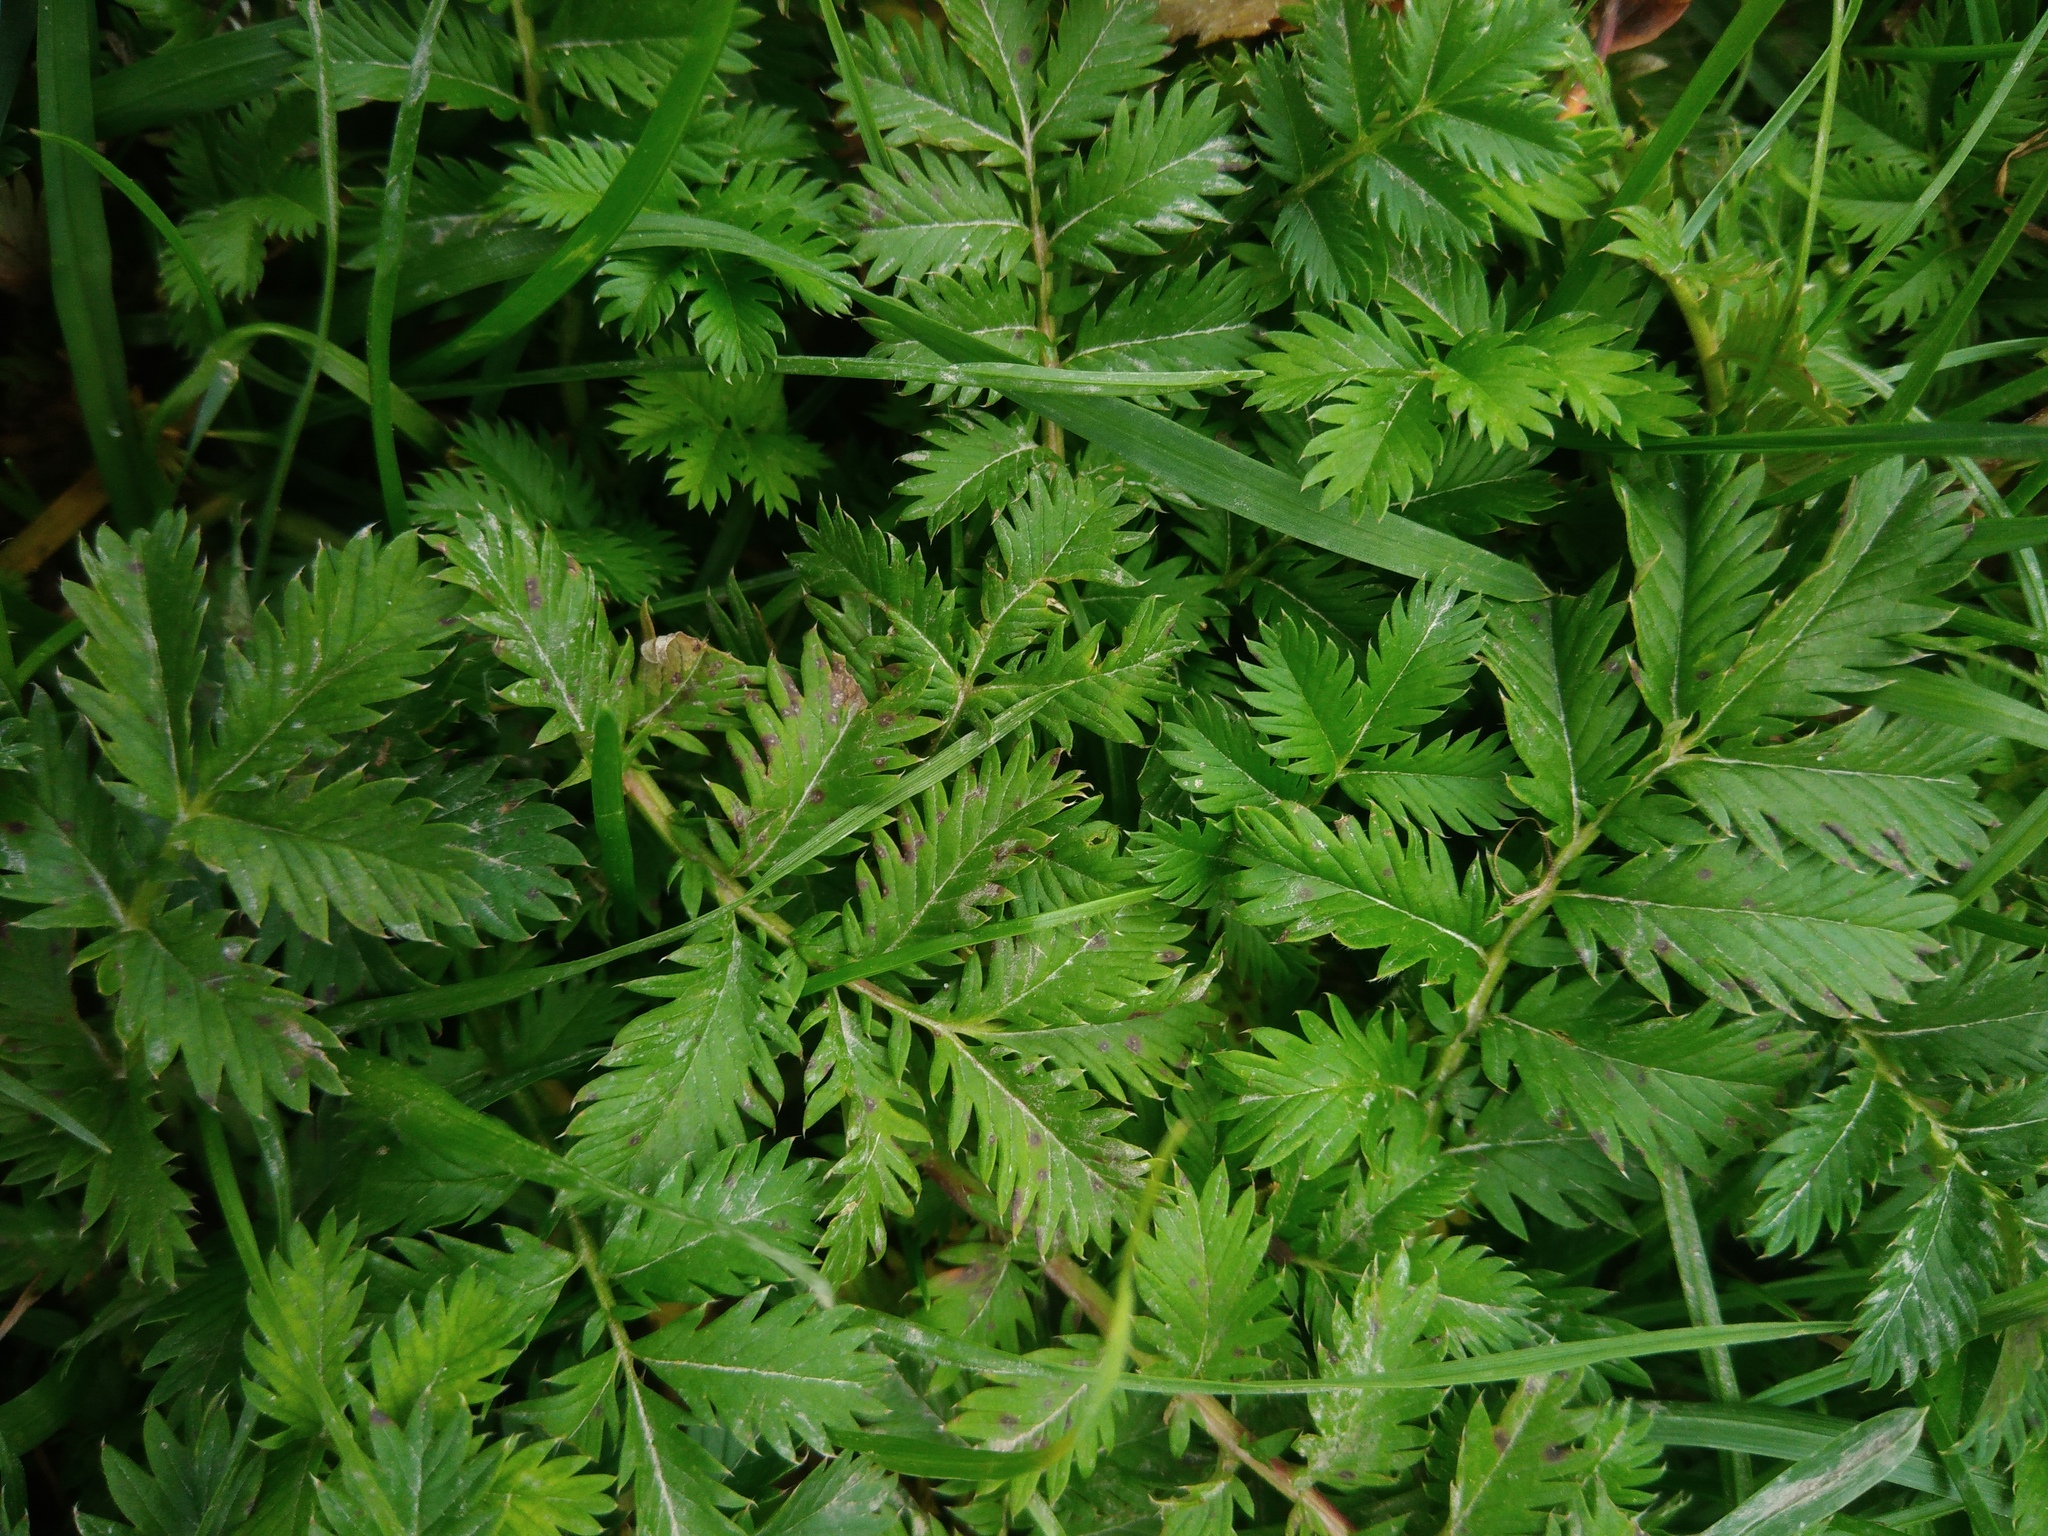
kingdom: Plantae
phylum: Tracheophyta
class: Magnoliopsida
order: Rosales
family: Rosaceae
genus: Argentina
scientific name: Argentina anserina
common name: Common silverweed
